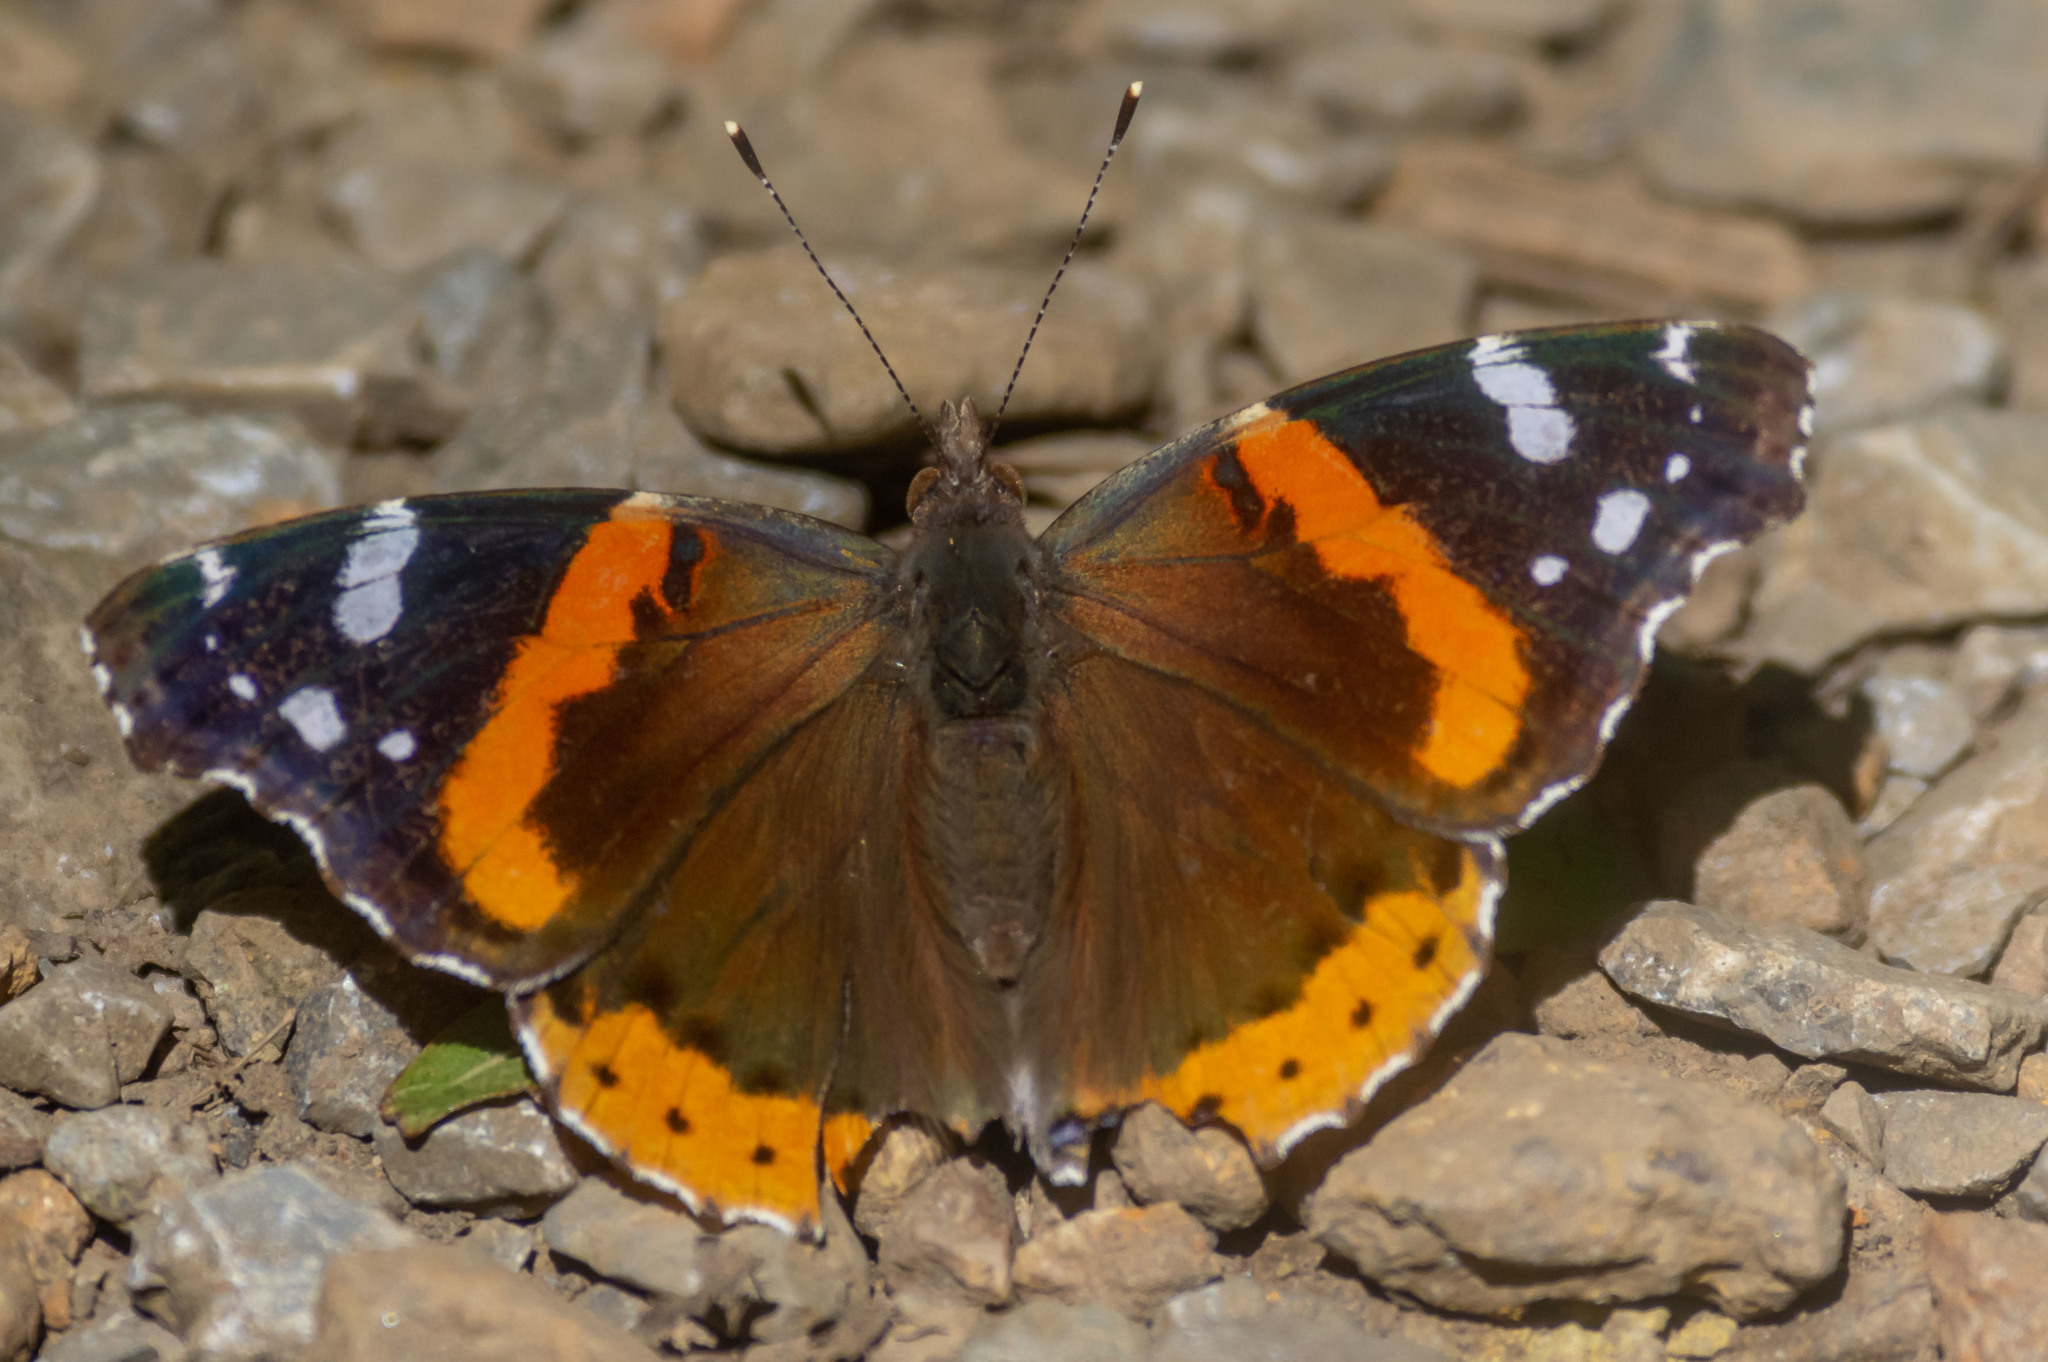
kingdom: Animalia
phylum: Arthropoda
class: Insecta
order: Lepidoptera
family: Nymphalidae
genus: Vanessa
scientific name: Vanessa atalanta
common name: Red admiral
